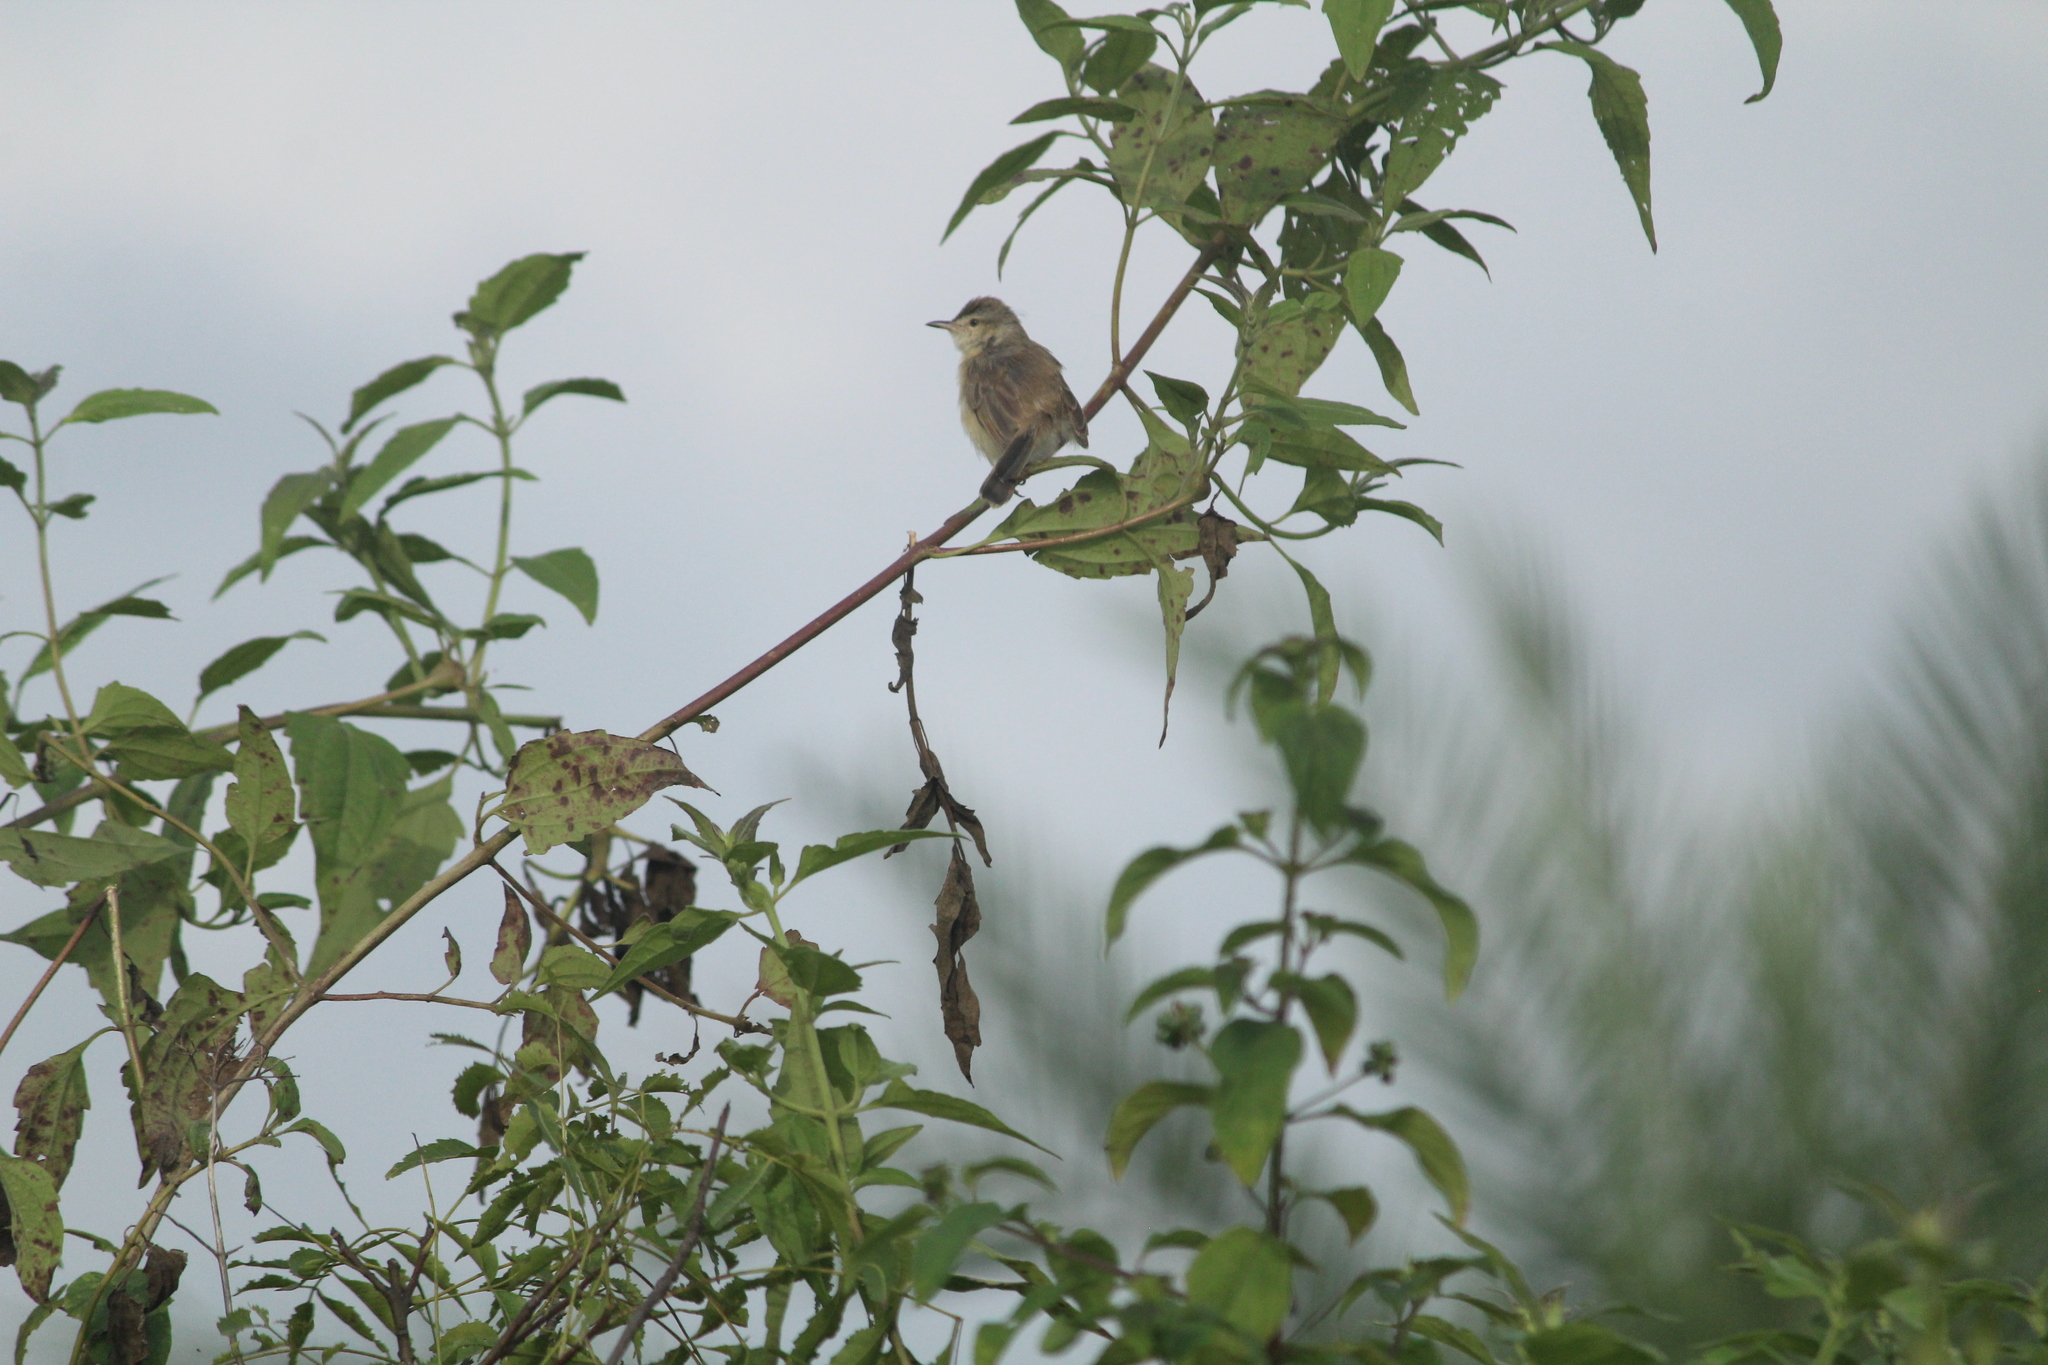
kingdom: Animalia
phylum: Chordata
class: Aves
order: Passeriformes
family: Cisticolidae
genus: Prinia
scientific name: Prinia inornata
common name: Plain prinia
